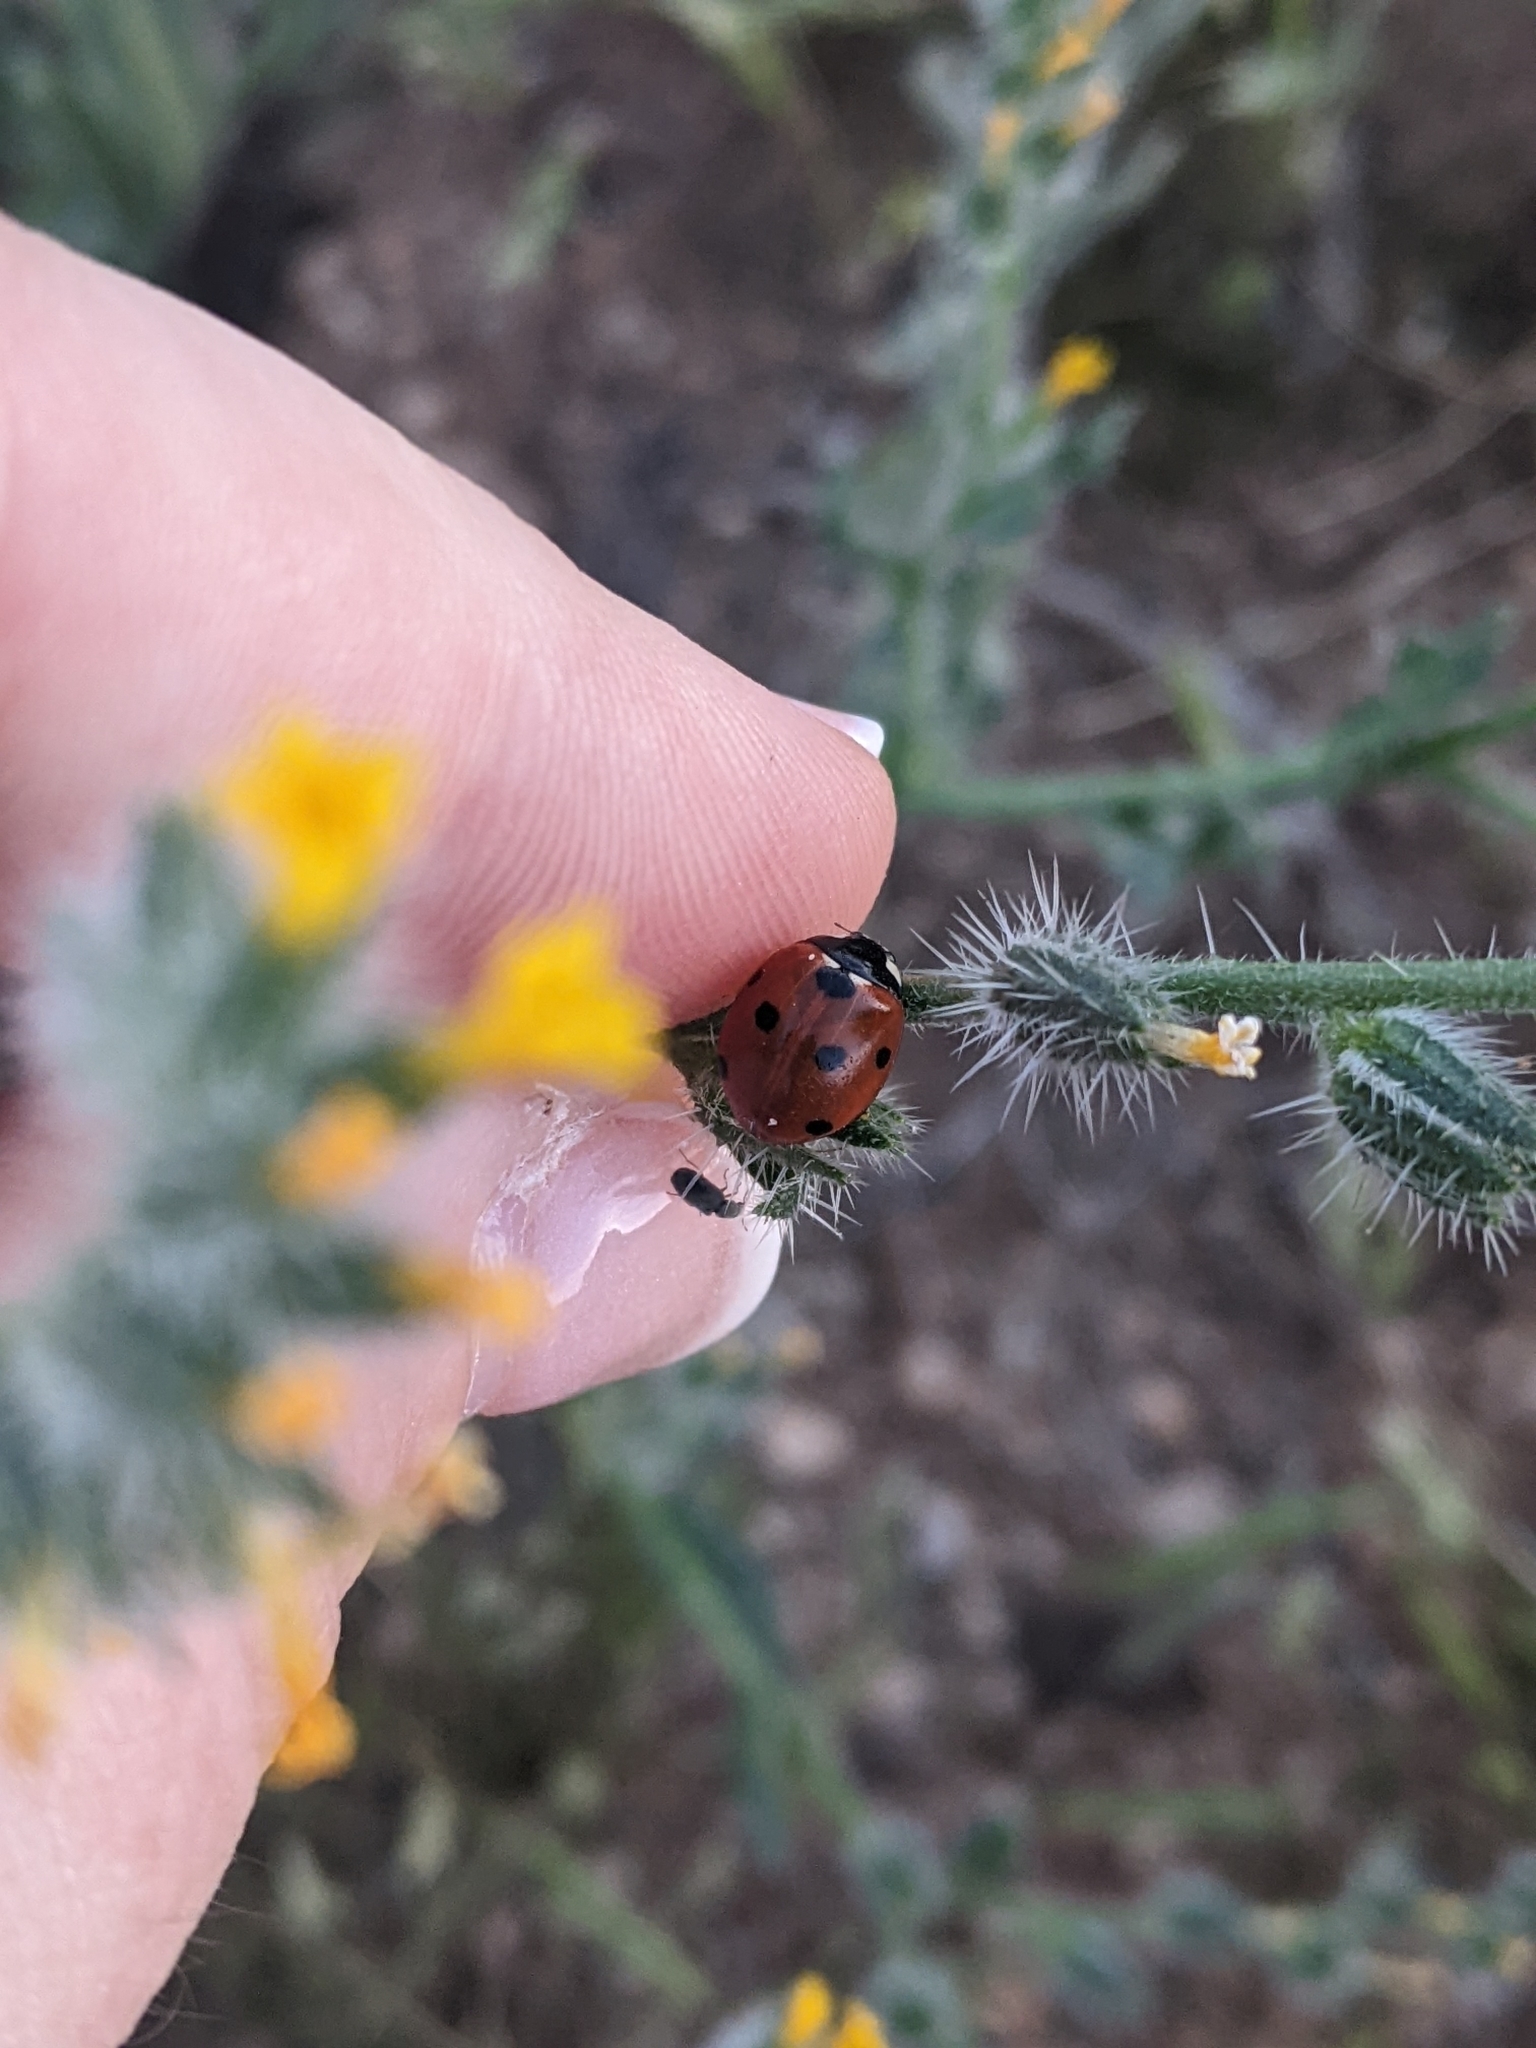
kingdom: Animalia
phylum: Arthropoda
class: Insecta
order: Coleoptera
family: Coccinellidae
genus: Coccinella
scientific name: Coccinella septempunctata
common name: Sevenspotted lady beetle
